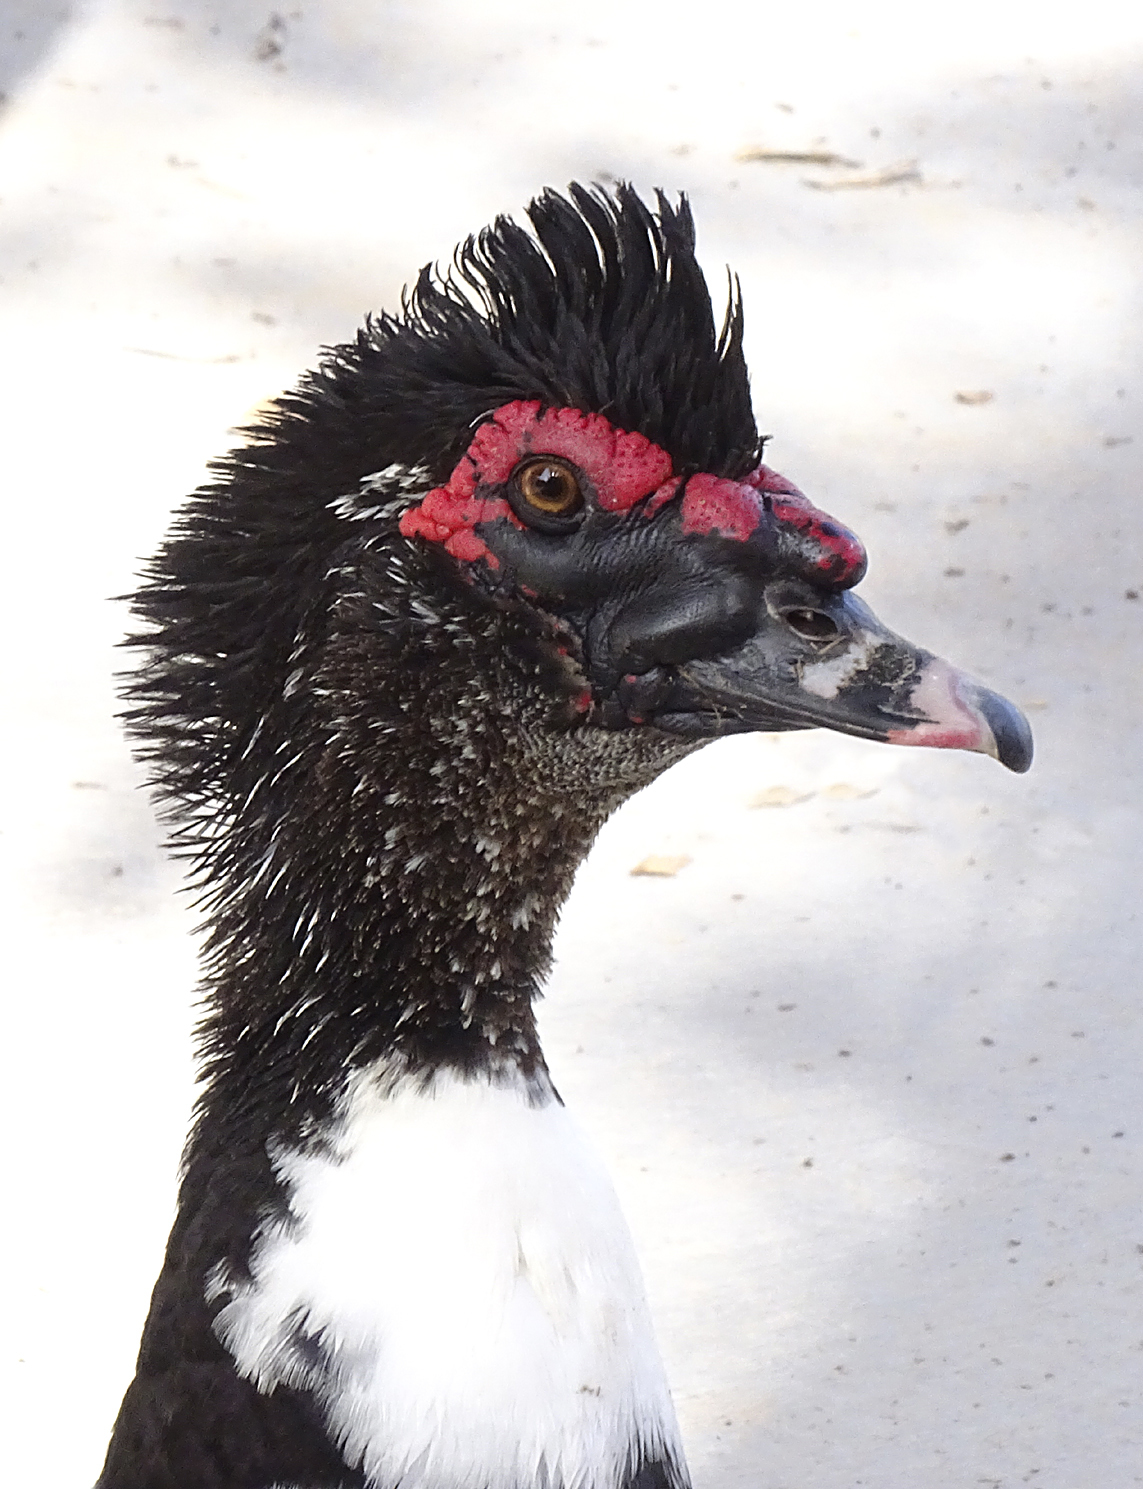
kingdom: Animalia
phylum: Chordata
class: Aves
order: Anseriformes
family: Anatidae
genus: Cairina
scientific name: Cairina moschata
